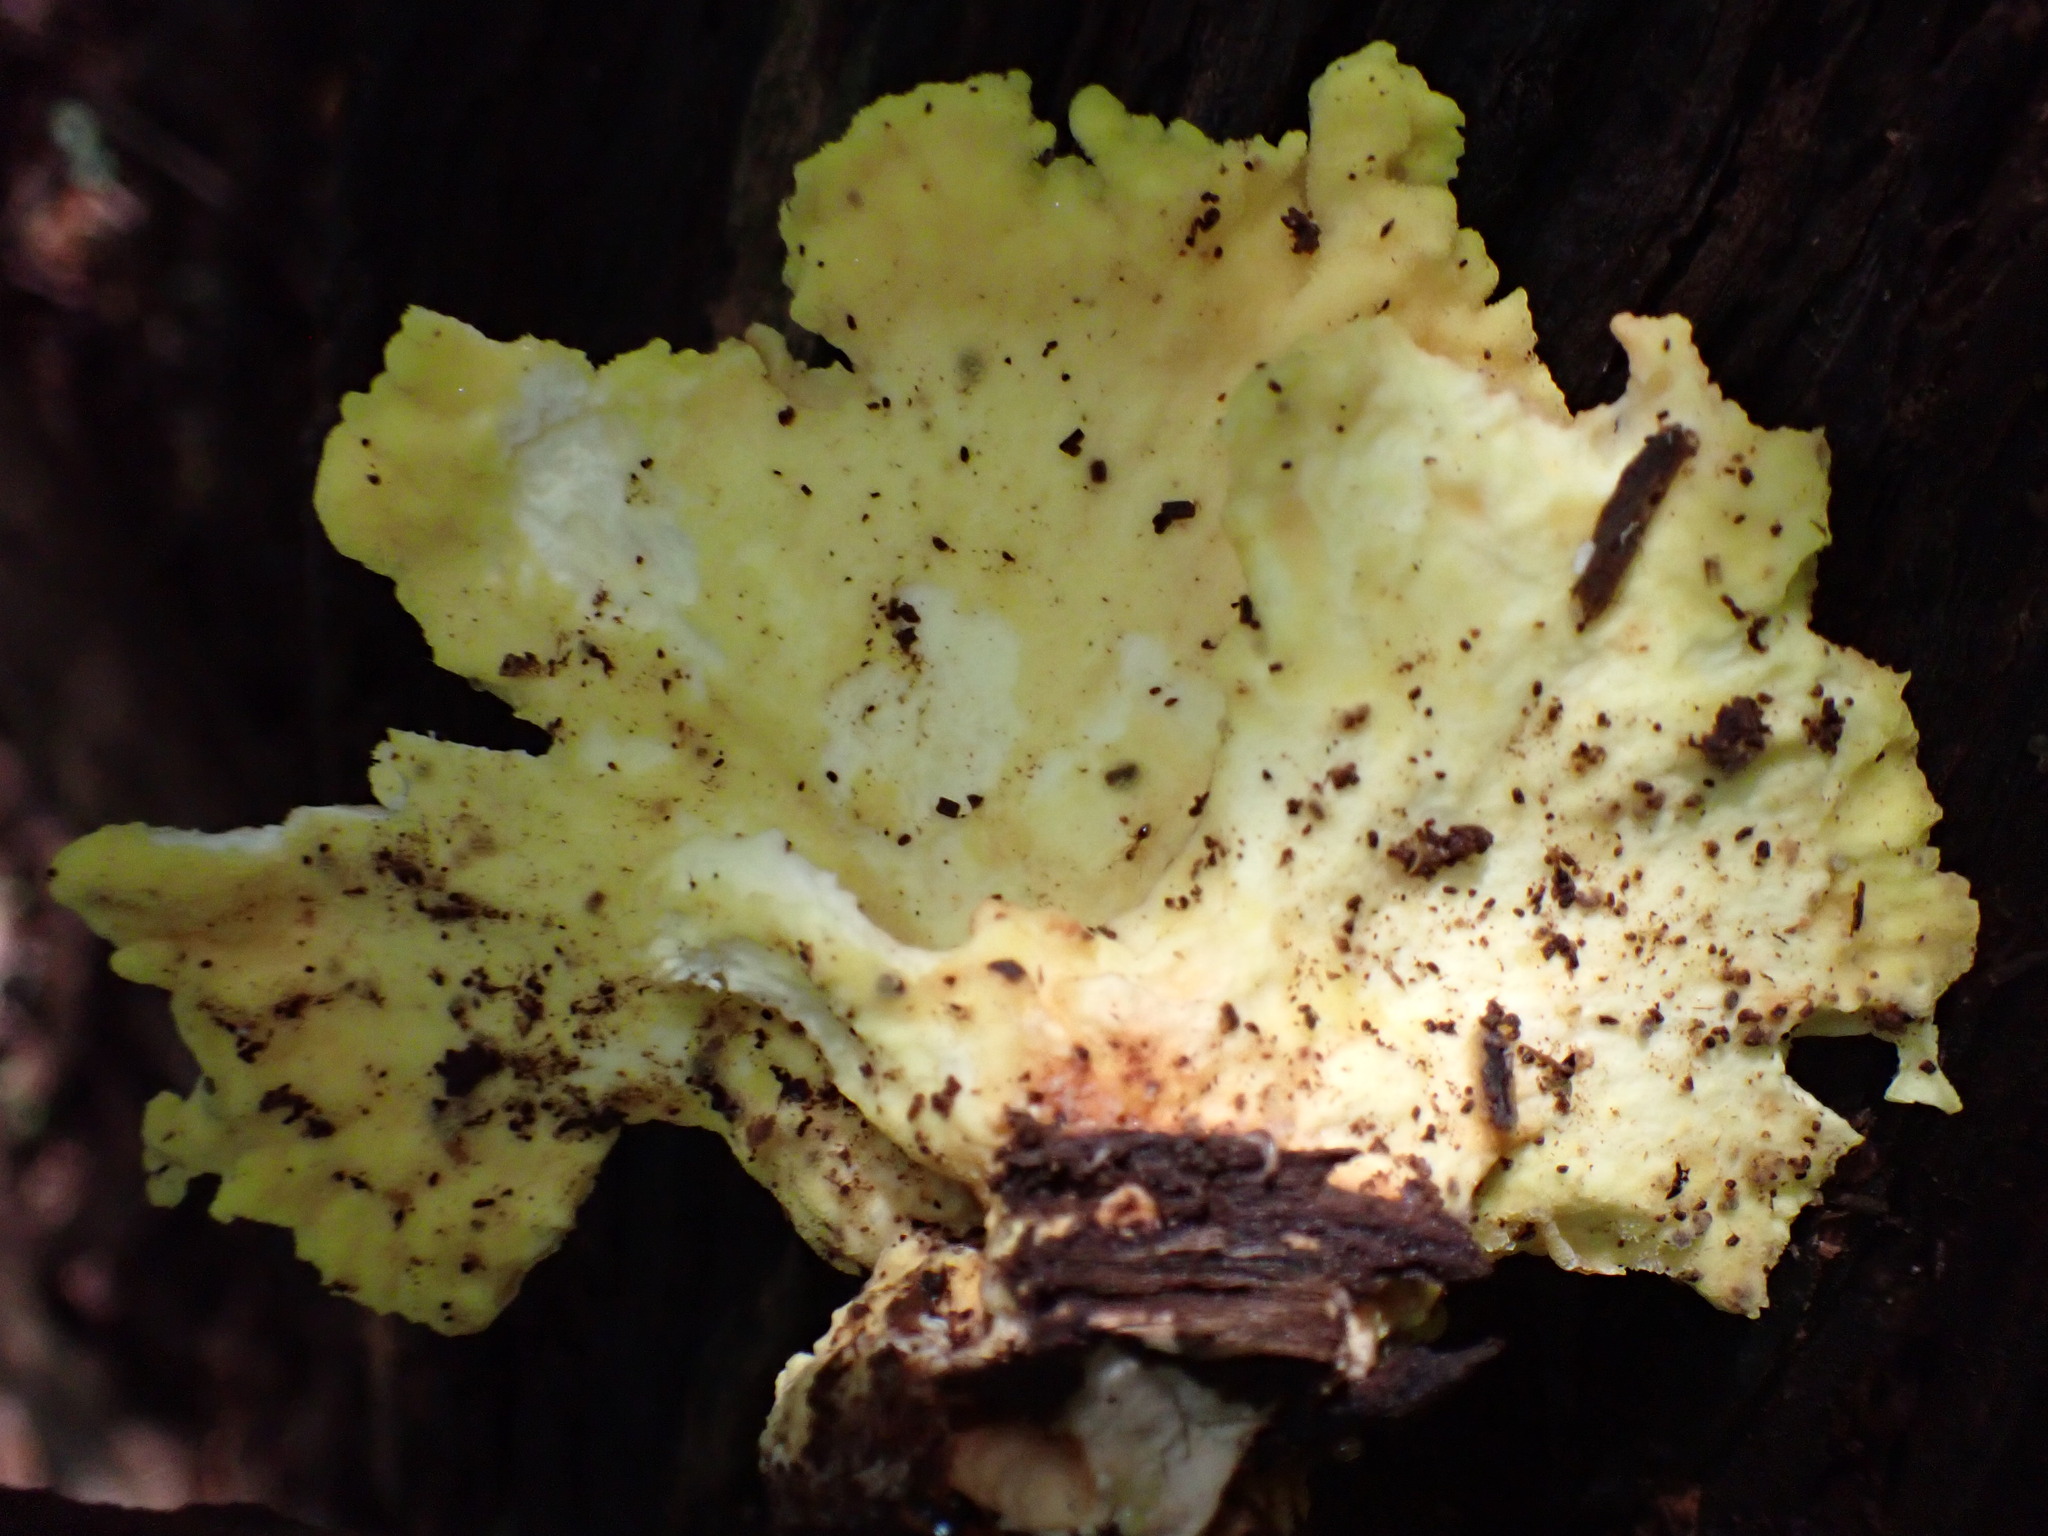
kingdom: Fungi
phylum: Basidiomycota
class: Agaricomycetes
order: Polyporales
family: Laetiporaceae
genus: Laetiporus
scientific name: Laetiporus sulphureus
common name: Chicken of the woods
